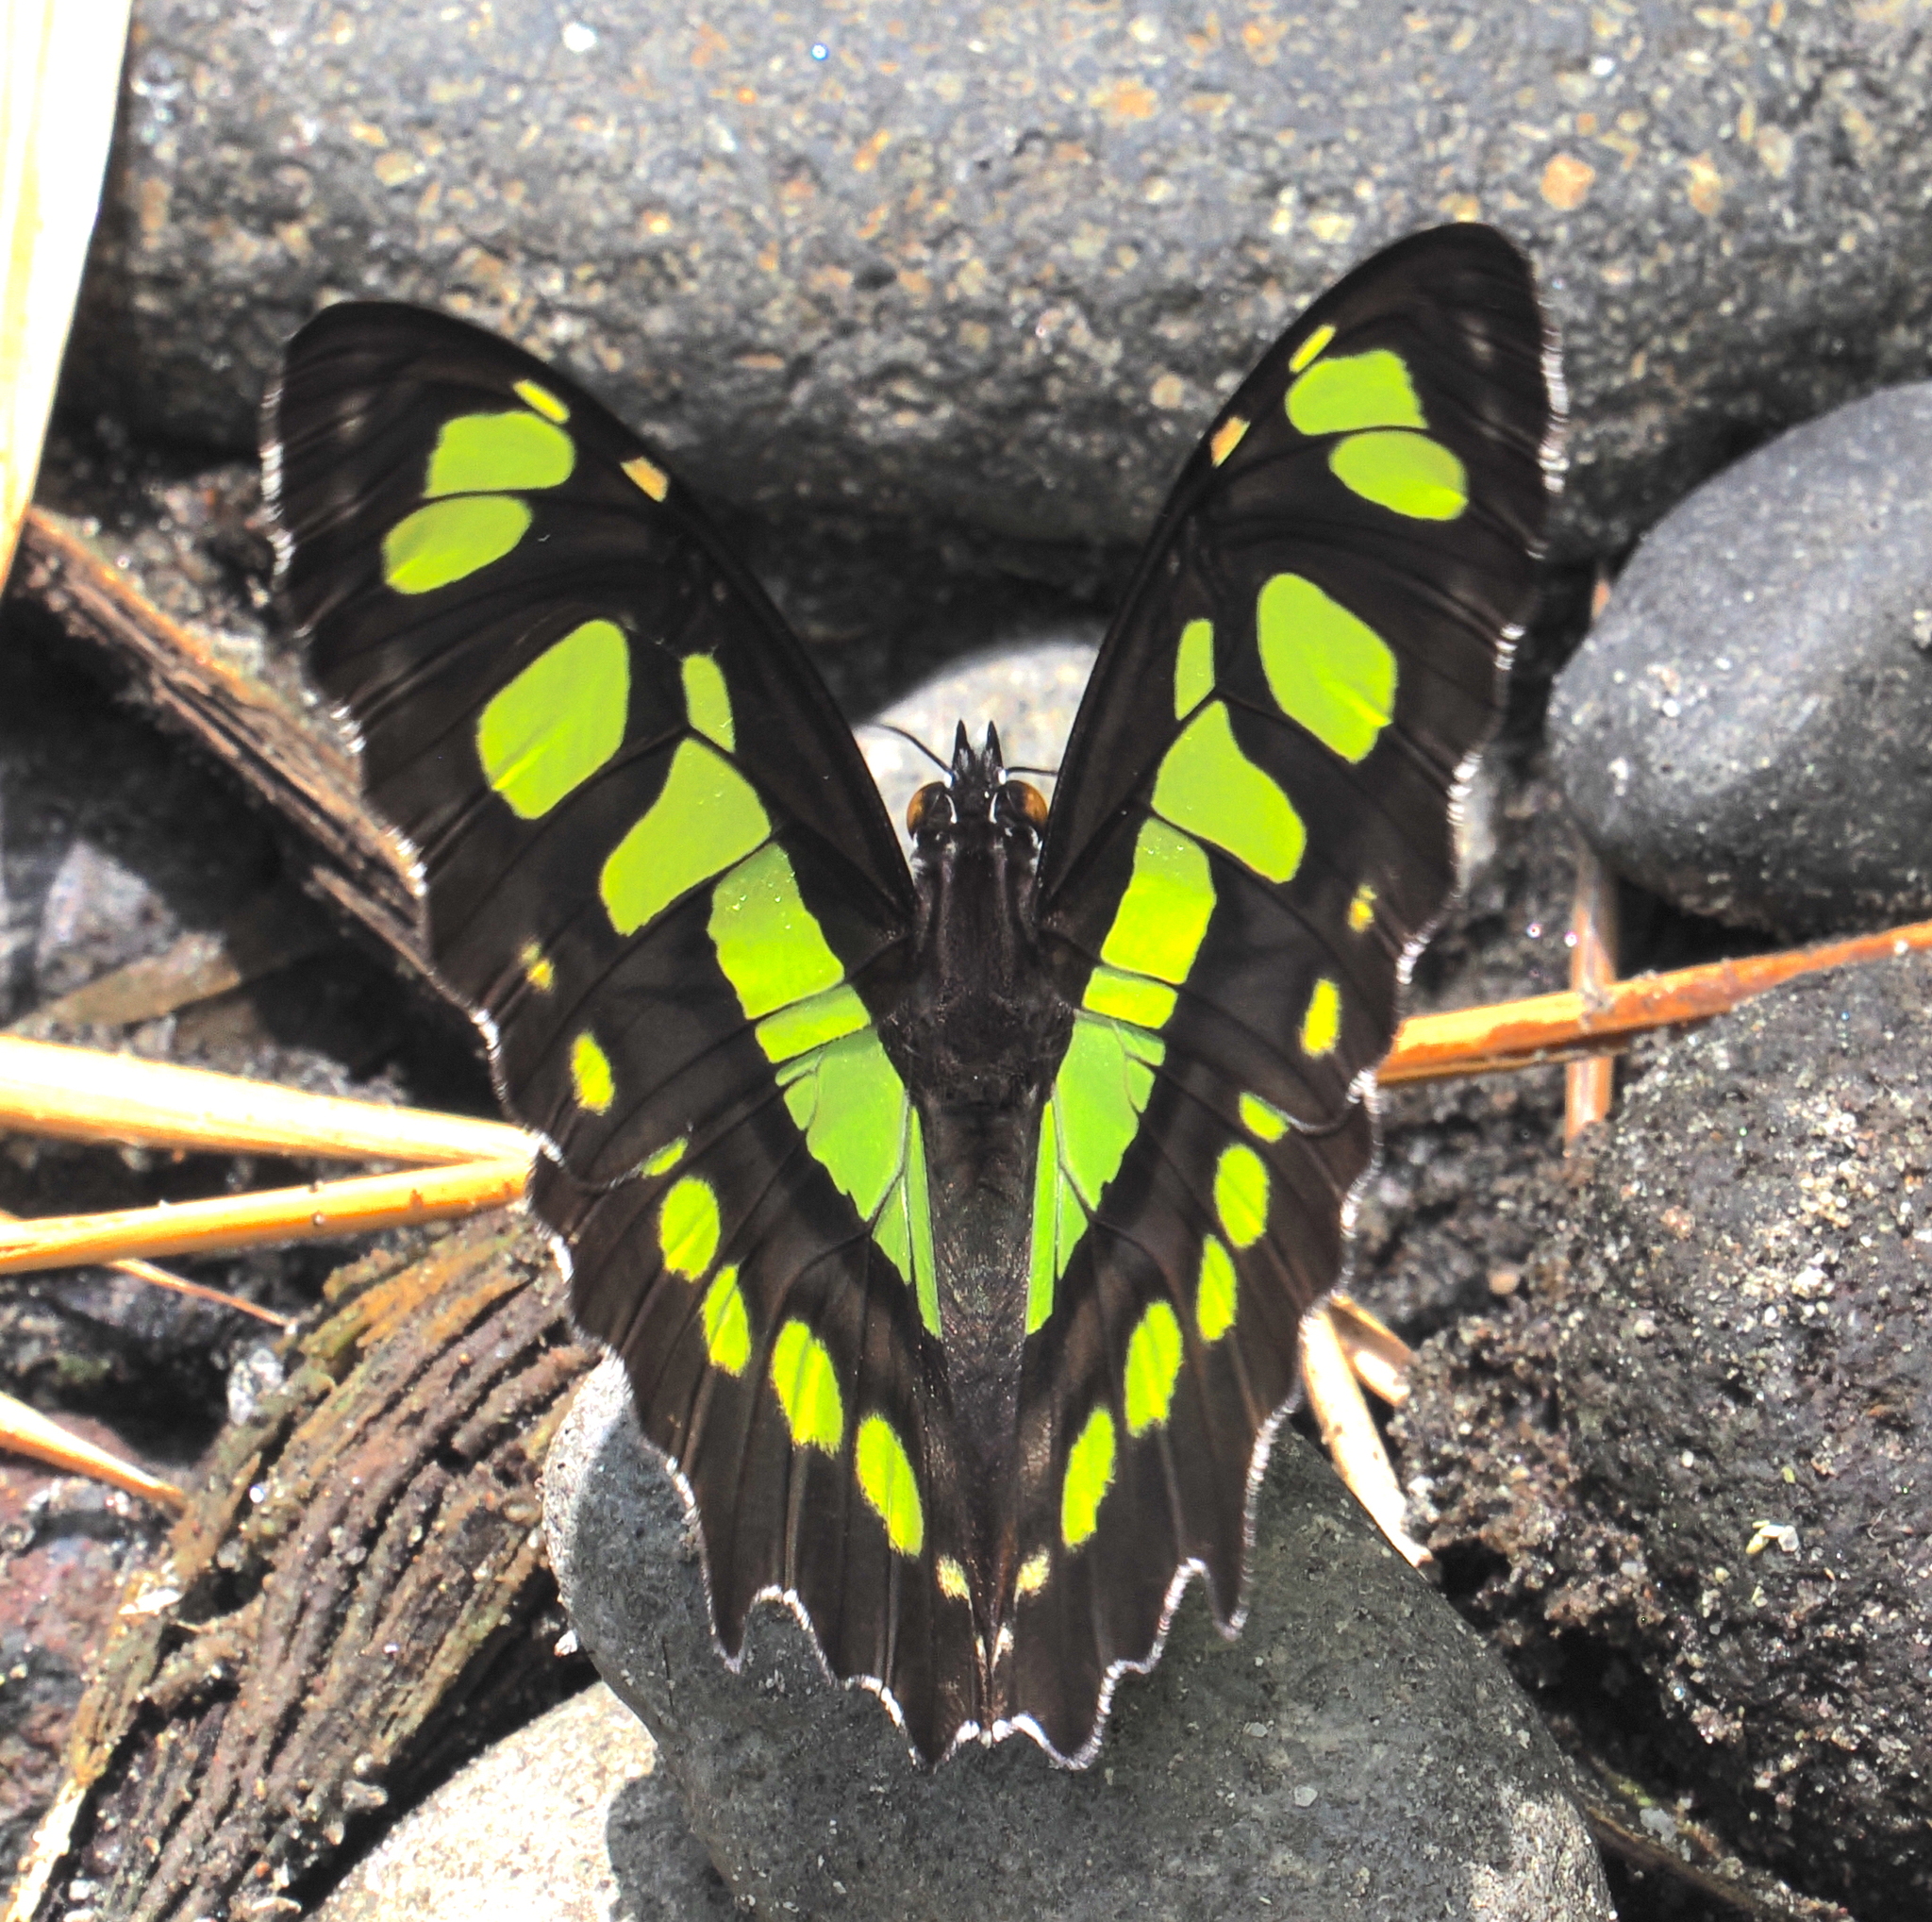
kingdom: Animalia
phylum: Arthropoda
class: Insecta
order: Lepidoptera
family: Nymphalidae
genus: Siproeta
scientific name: Siproeta stelenes
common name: Malachite
